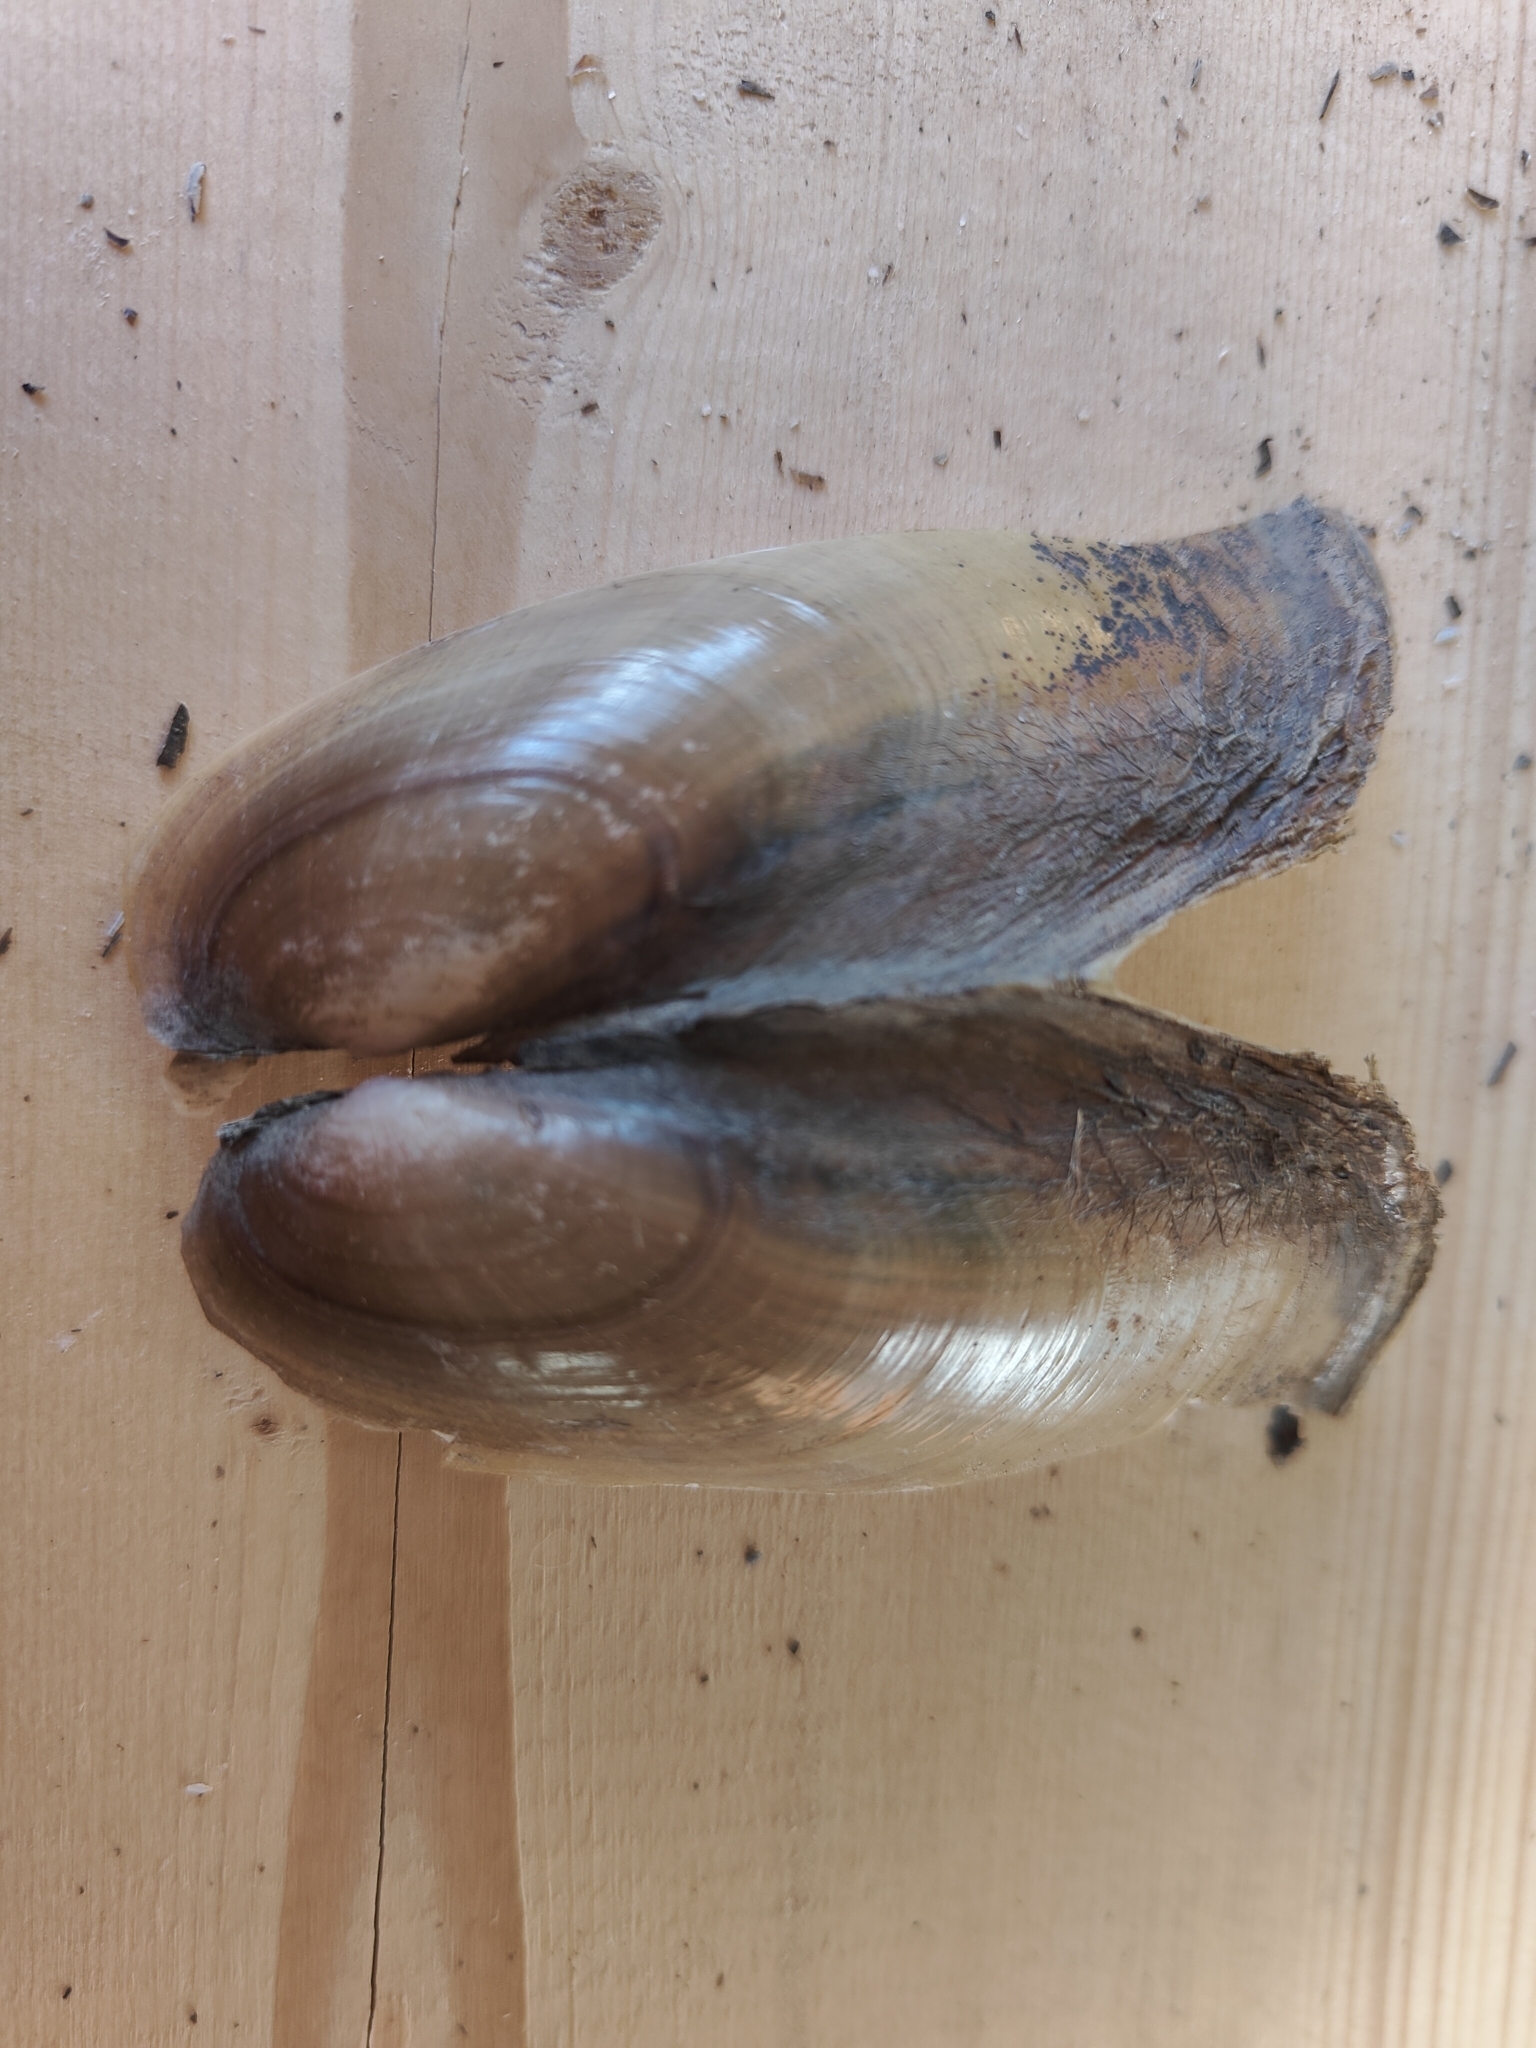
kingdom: Animalia
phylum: Mollusca
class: Bivalvia
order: Unionida
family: Unionidae
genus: Potamilus
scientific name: Potamilus fragilis
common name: Fragile papershell
